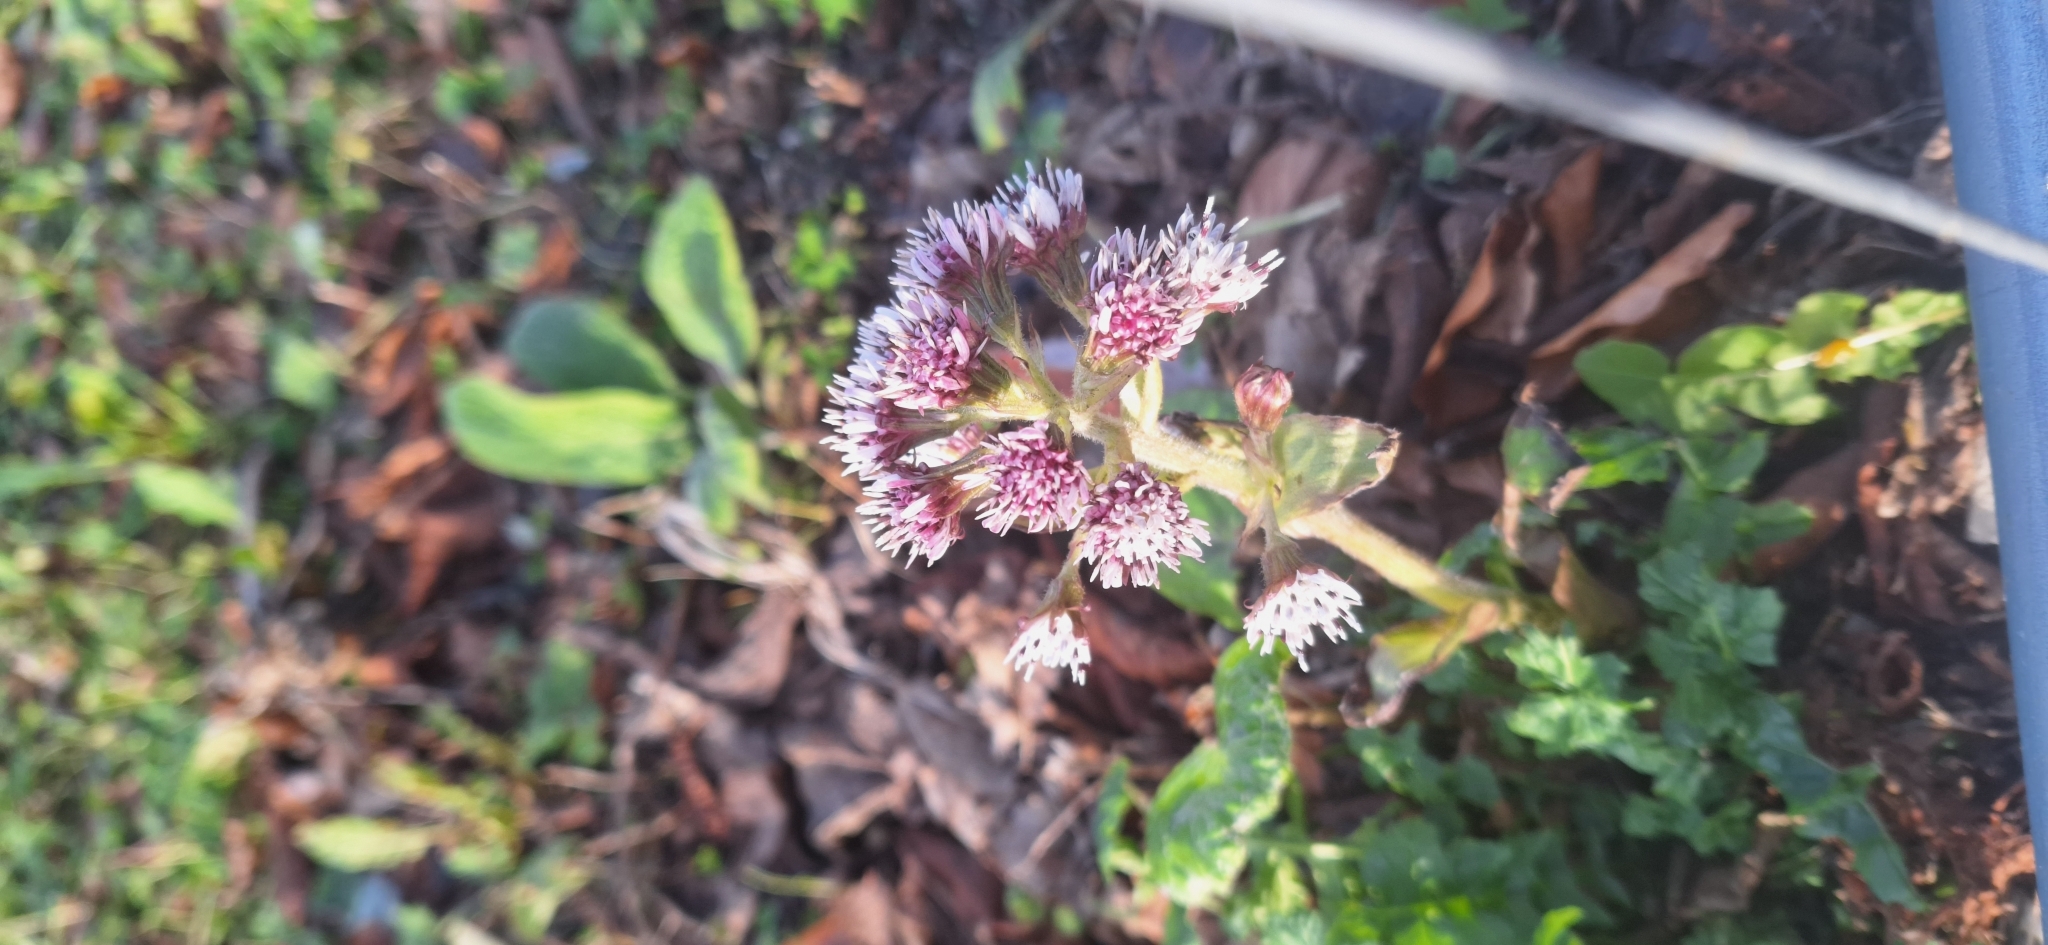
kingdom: Plantae
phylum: Tracheophyta
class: Magnoliopsida
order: Asterales
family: Asteraceae
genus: Petasites
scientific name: Petasites pyrenaicus
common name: Winter heliotrope
